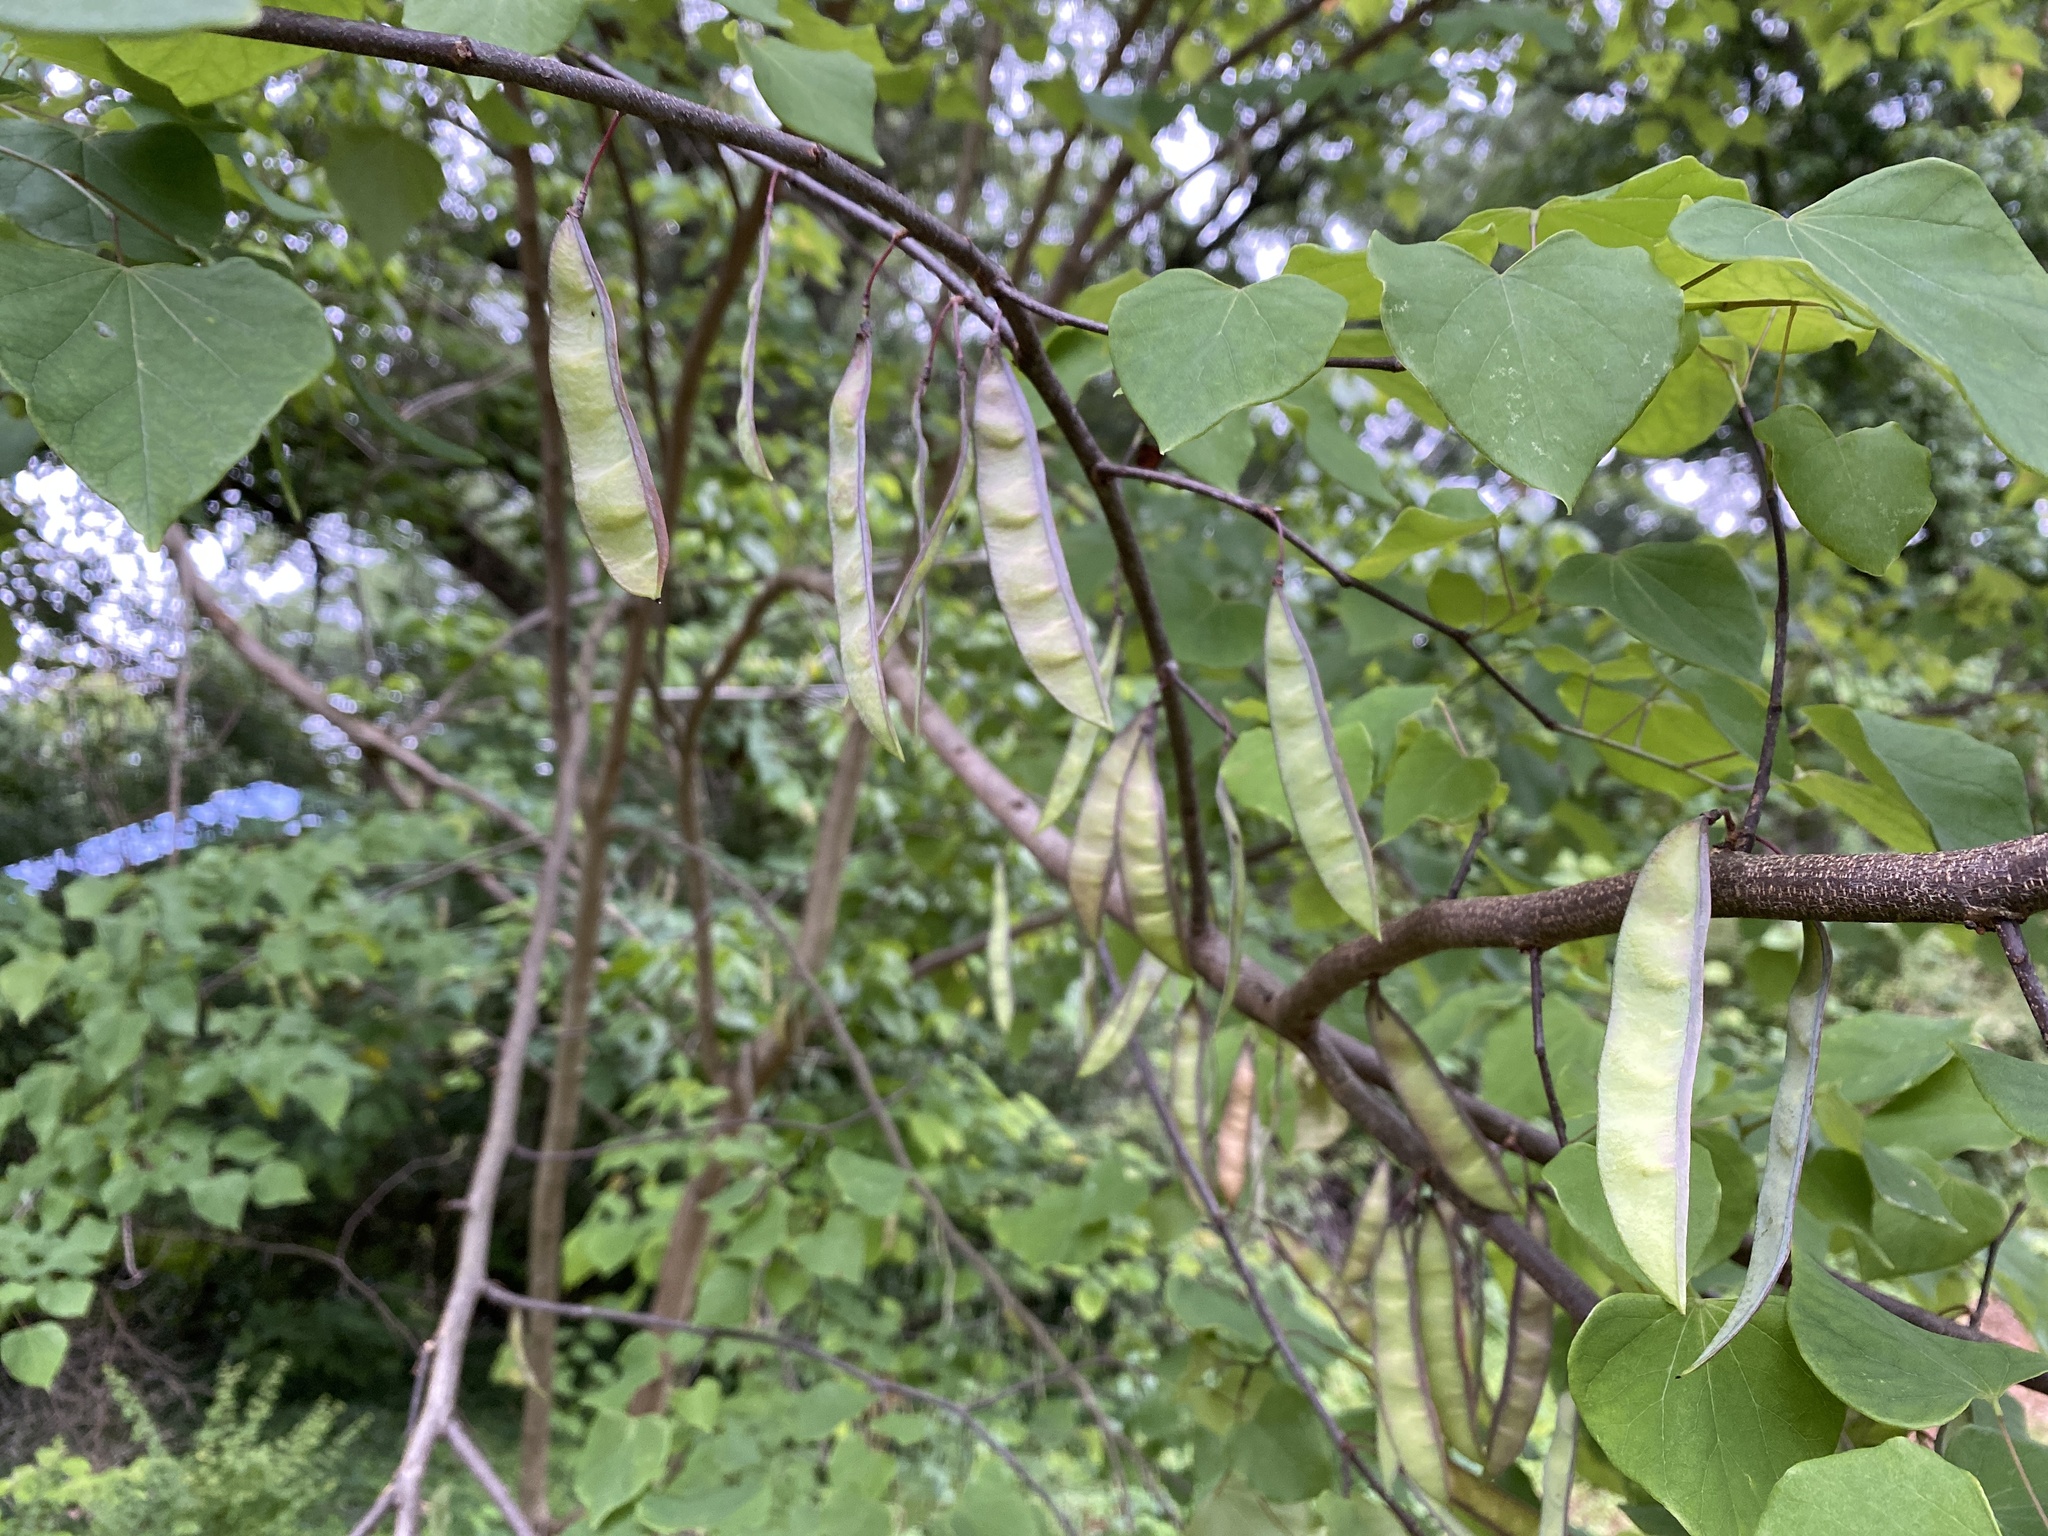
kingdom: Plantae
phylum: Tracheophyta
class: Magnoliopsida
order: Fabales
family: Fabaceae
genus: Cercis
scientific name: Cercis canadensis
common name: Eastern redbud
